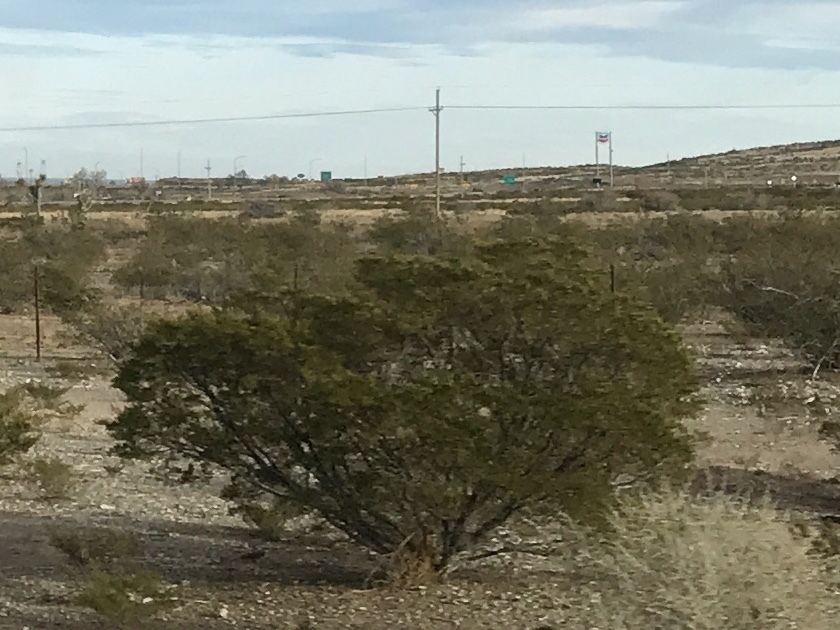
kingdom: Plantae
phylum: Tracheophyta
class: Magnoliopsida
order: Zygophyllales
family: Zygophyllaceae
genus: Larrea
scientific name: Larrea tridentata
